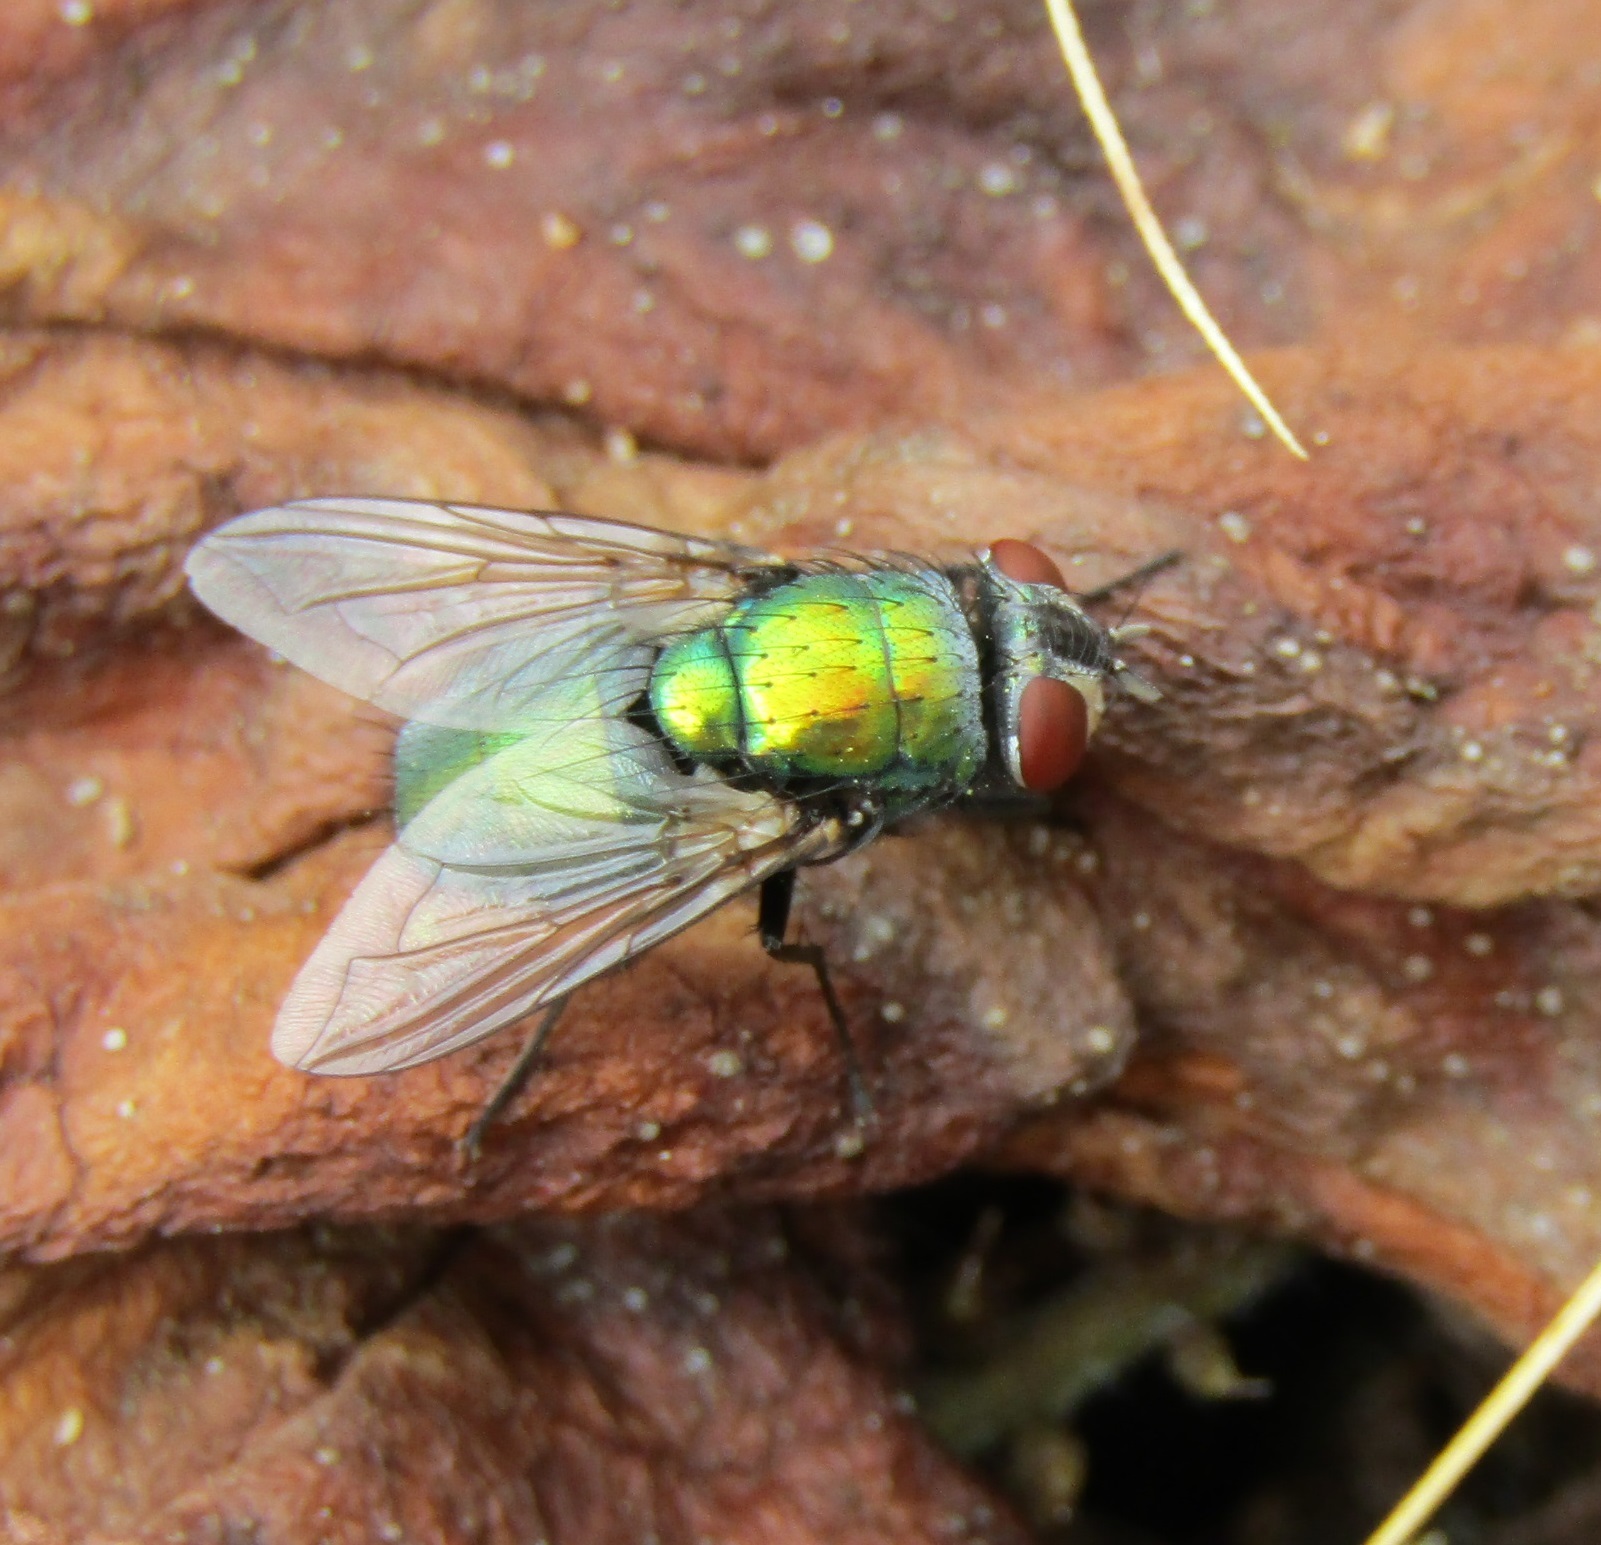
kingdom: Animalia
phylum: Arthropoda
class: Insecta
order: Diptera
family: Calliphoridae
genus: Lucilia
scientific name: Lucilia sericata
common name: Blow fly
